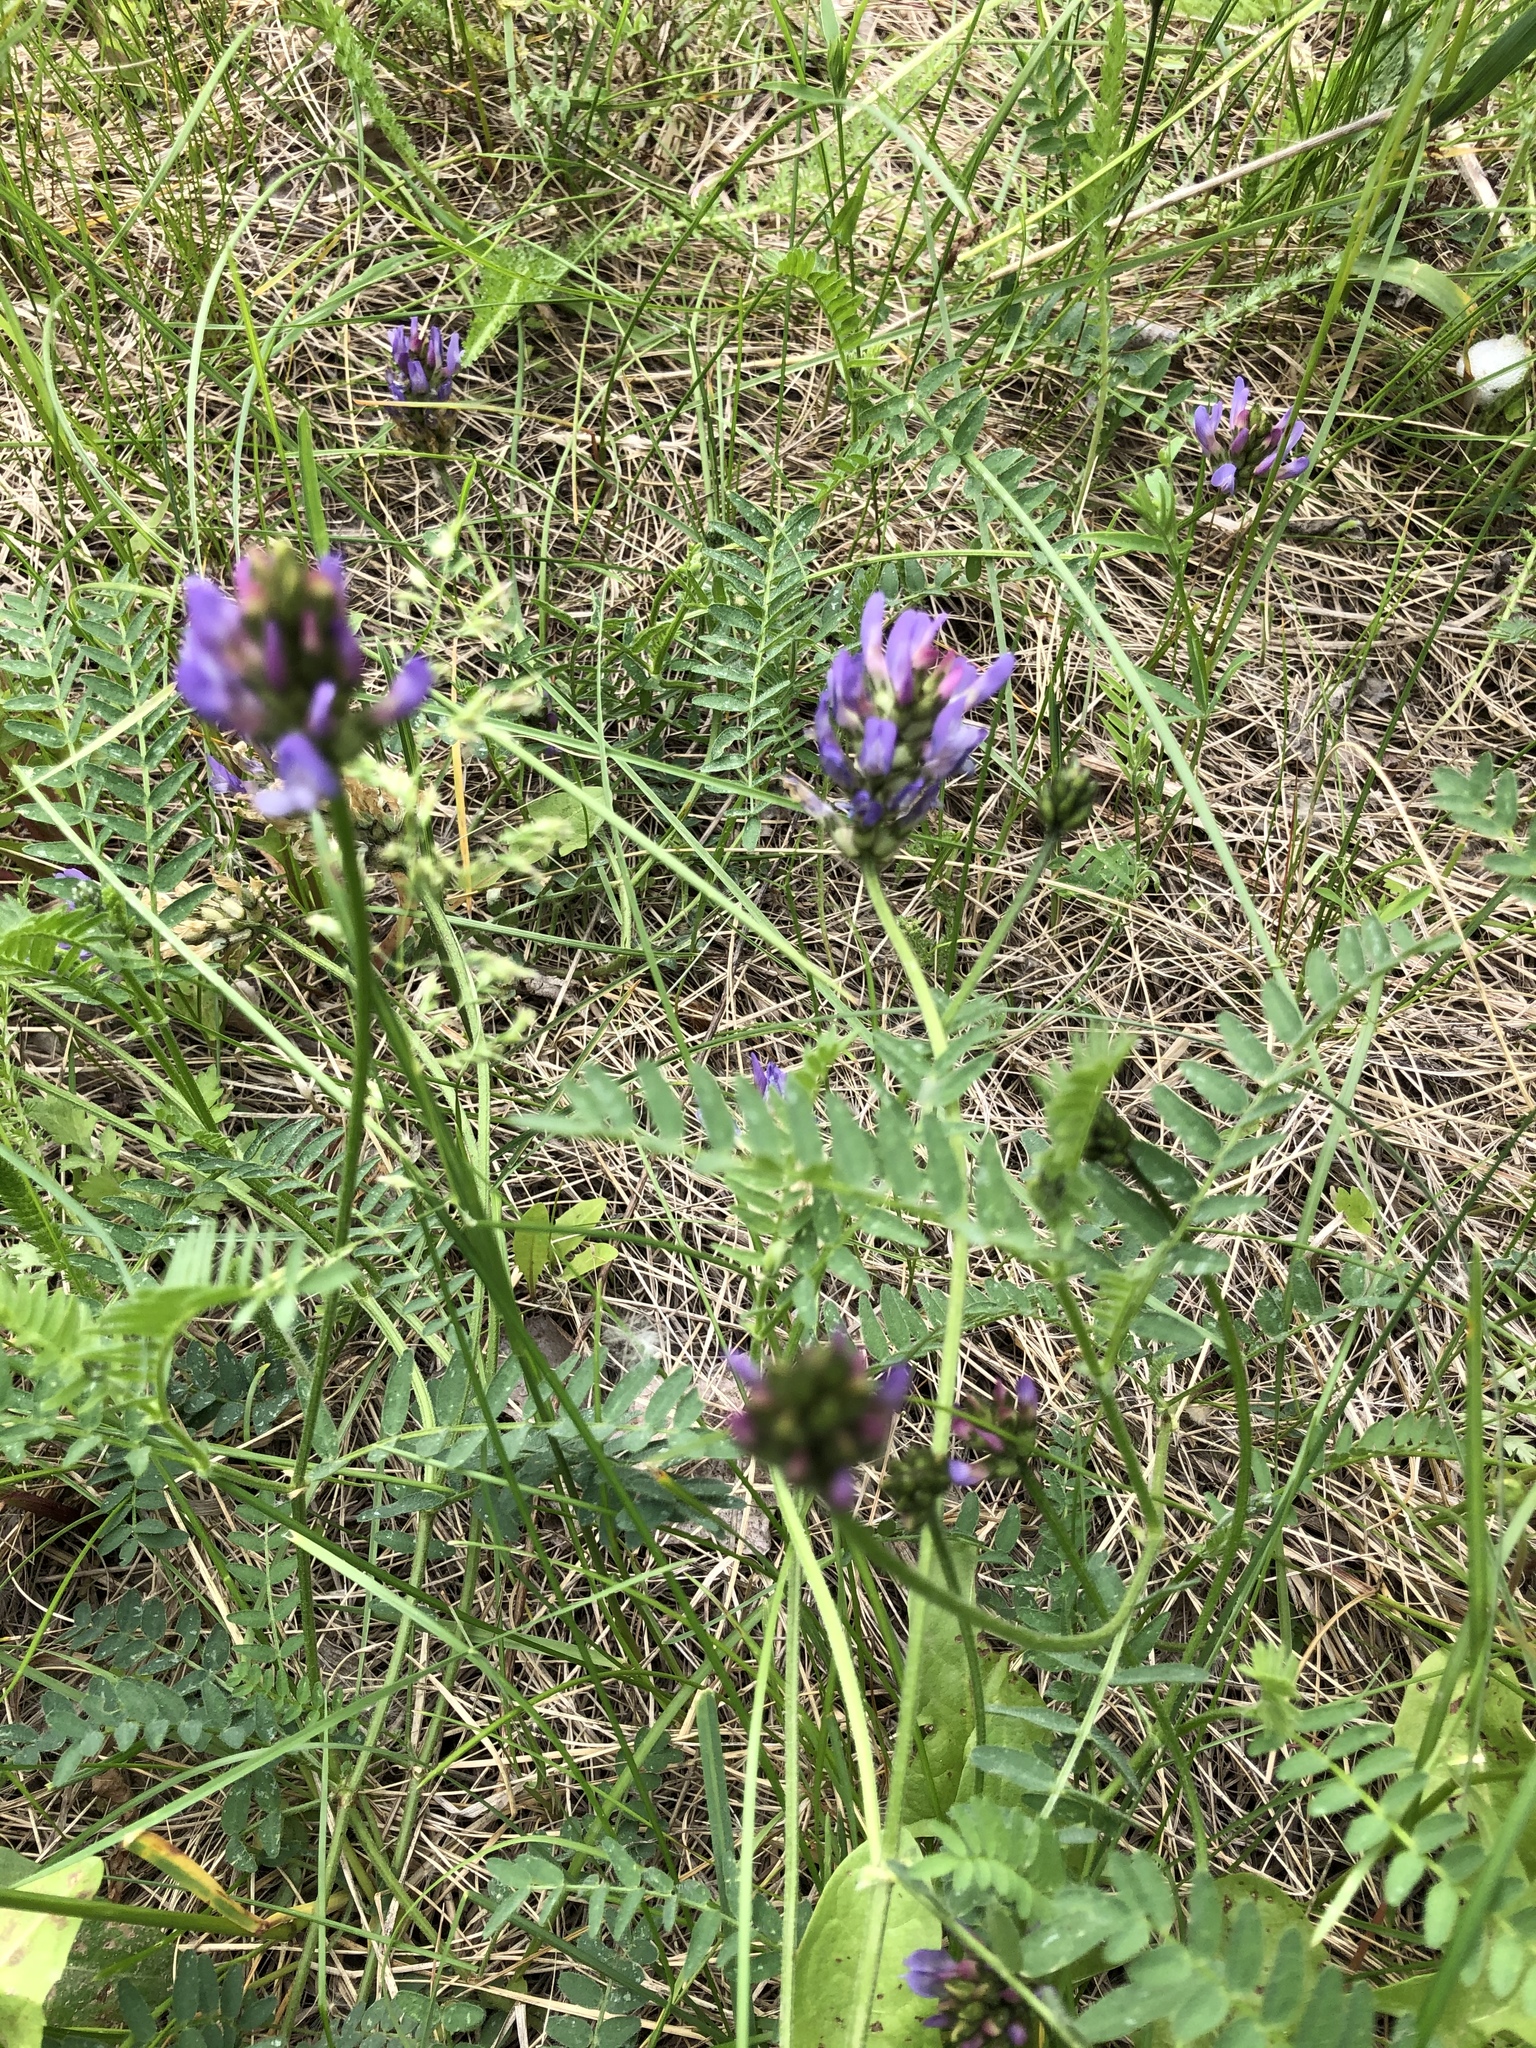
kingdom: Plantae
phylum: Tracheophyta
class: Magnoliopsida
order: Fabales
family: Fabaceae
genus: Astragalus
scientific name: Astragalus danicus
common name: Purple milk-vetch
